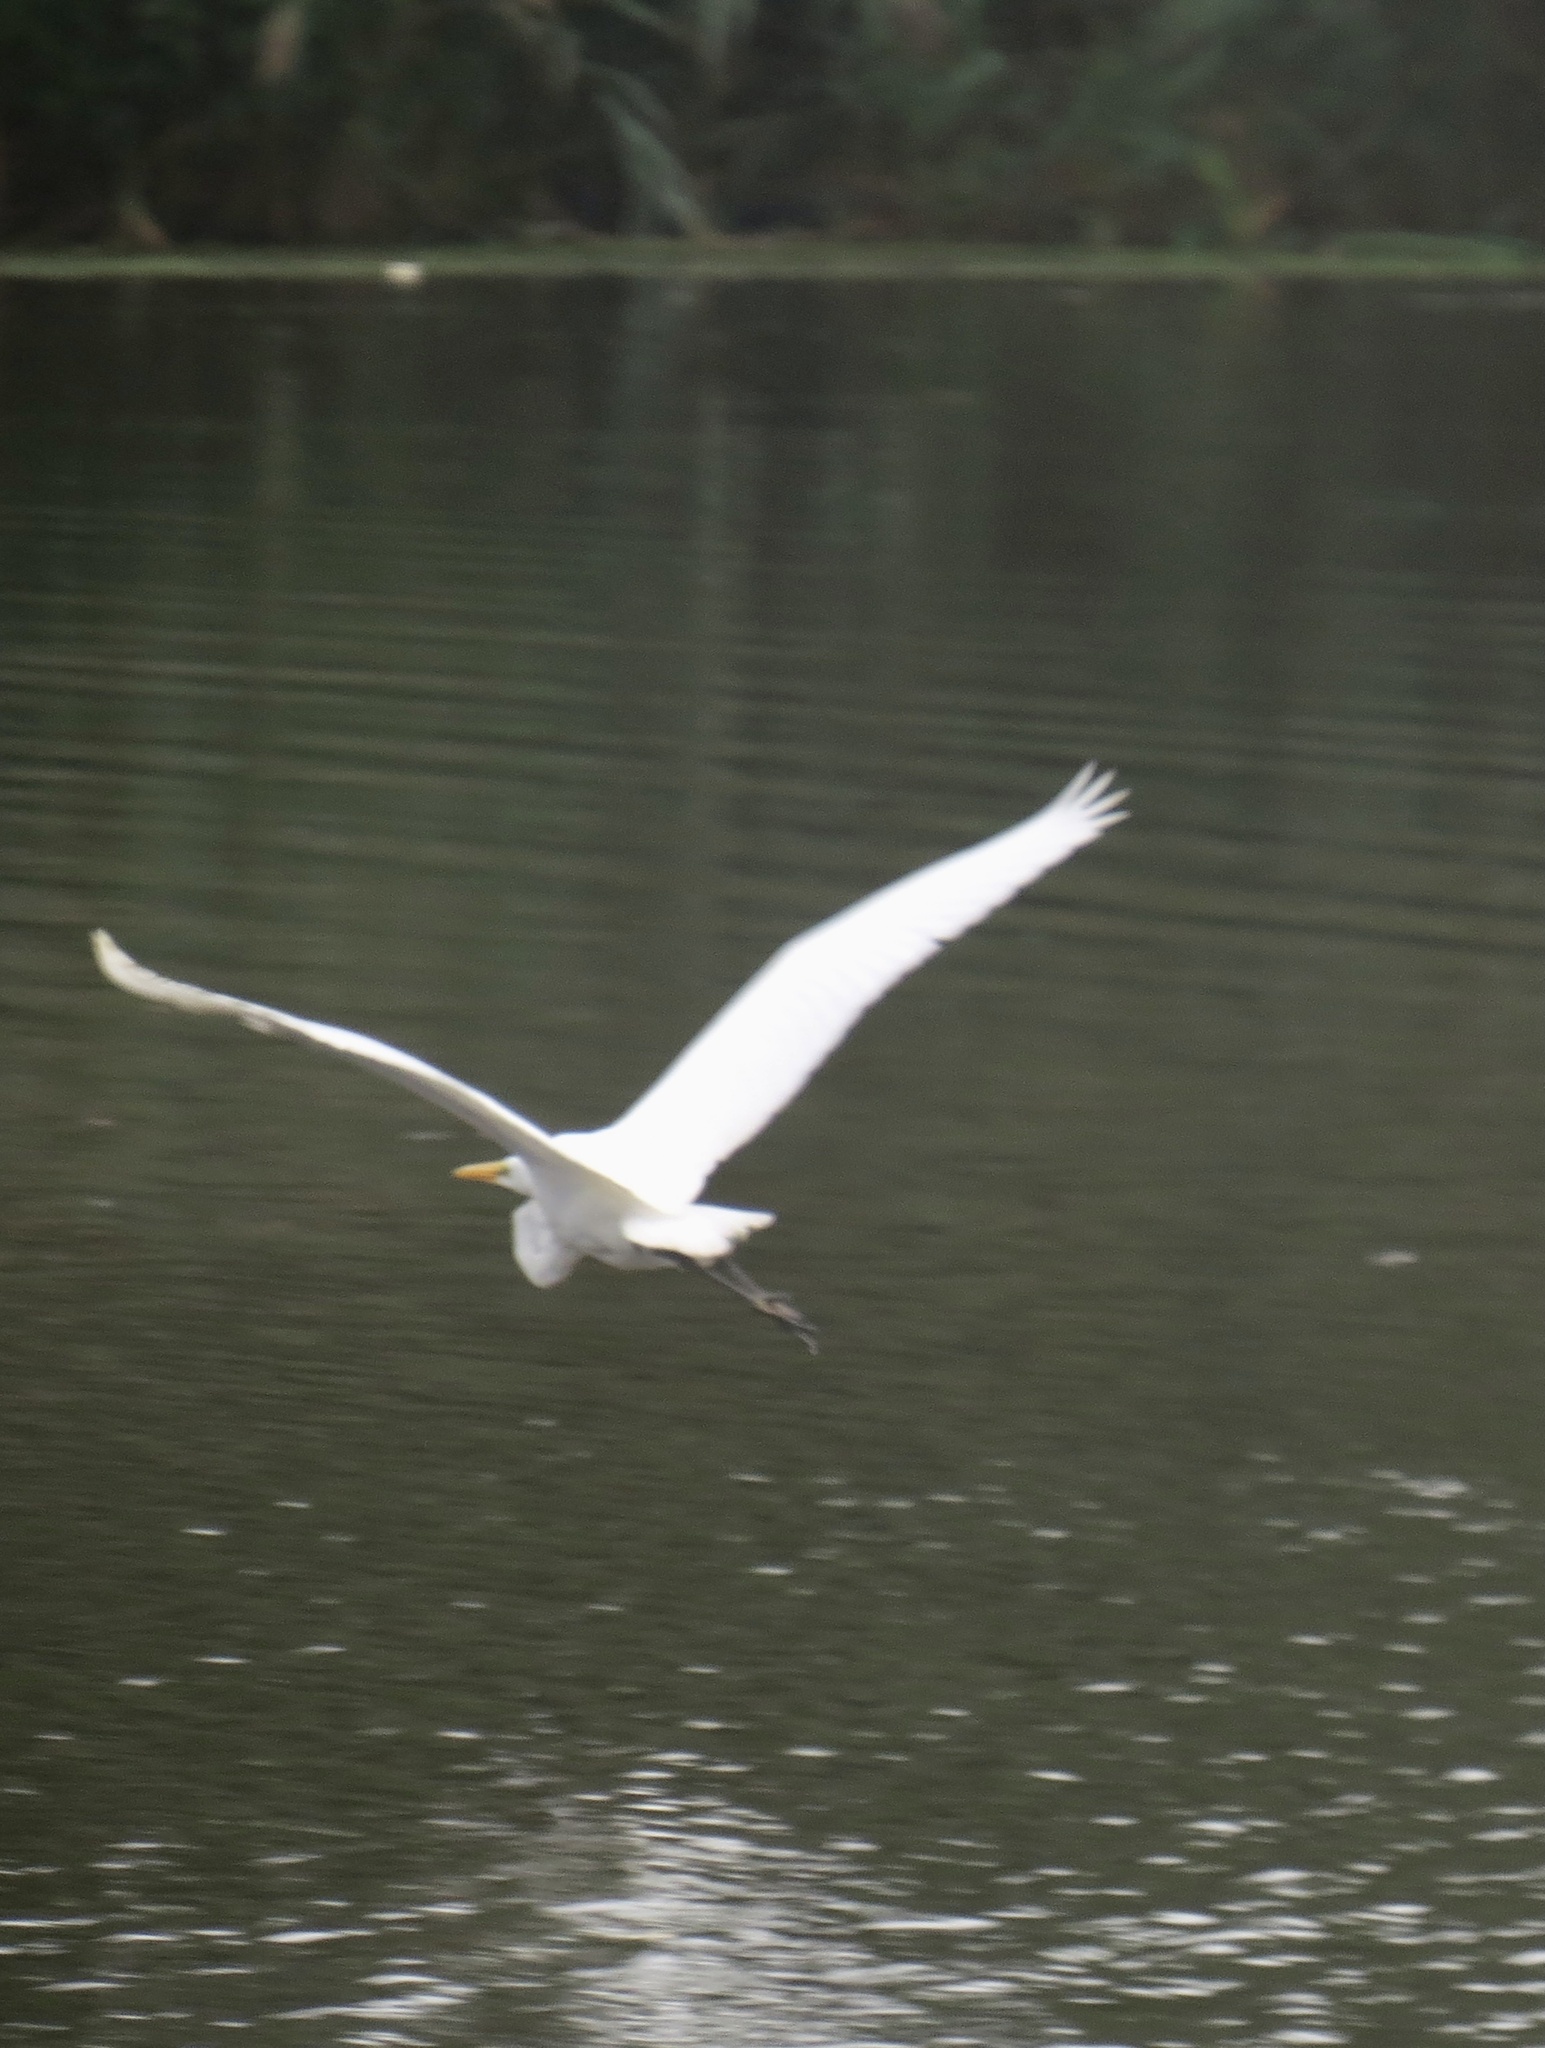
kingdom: Animalia
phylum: Chordata
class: Aves
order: Pelecaniformes
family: Ardeidae
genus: Ardea
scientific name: Ardea alba
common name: Great egret
